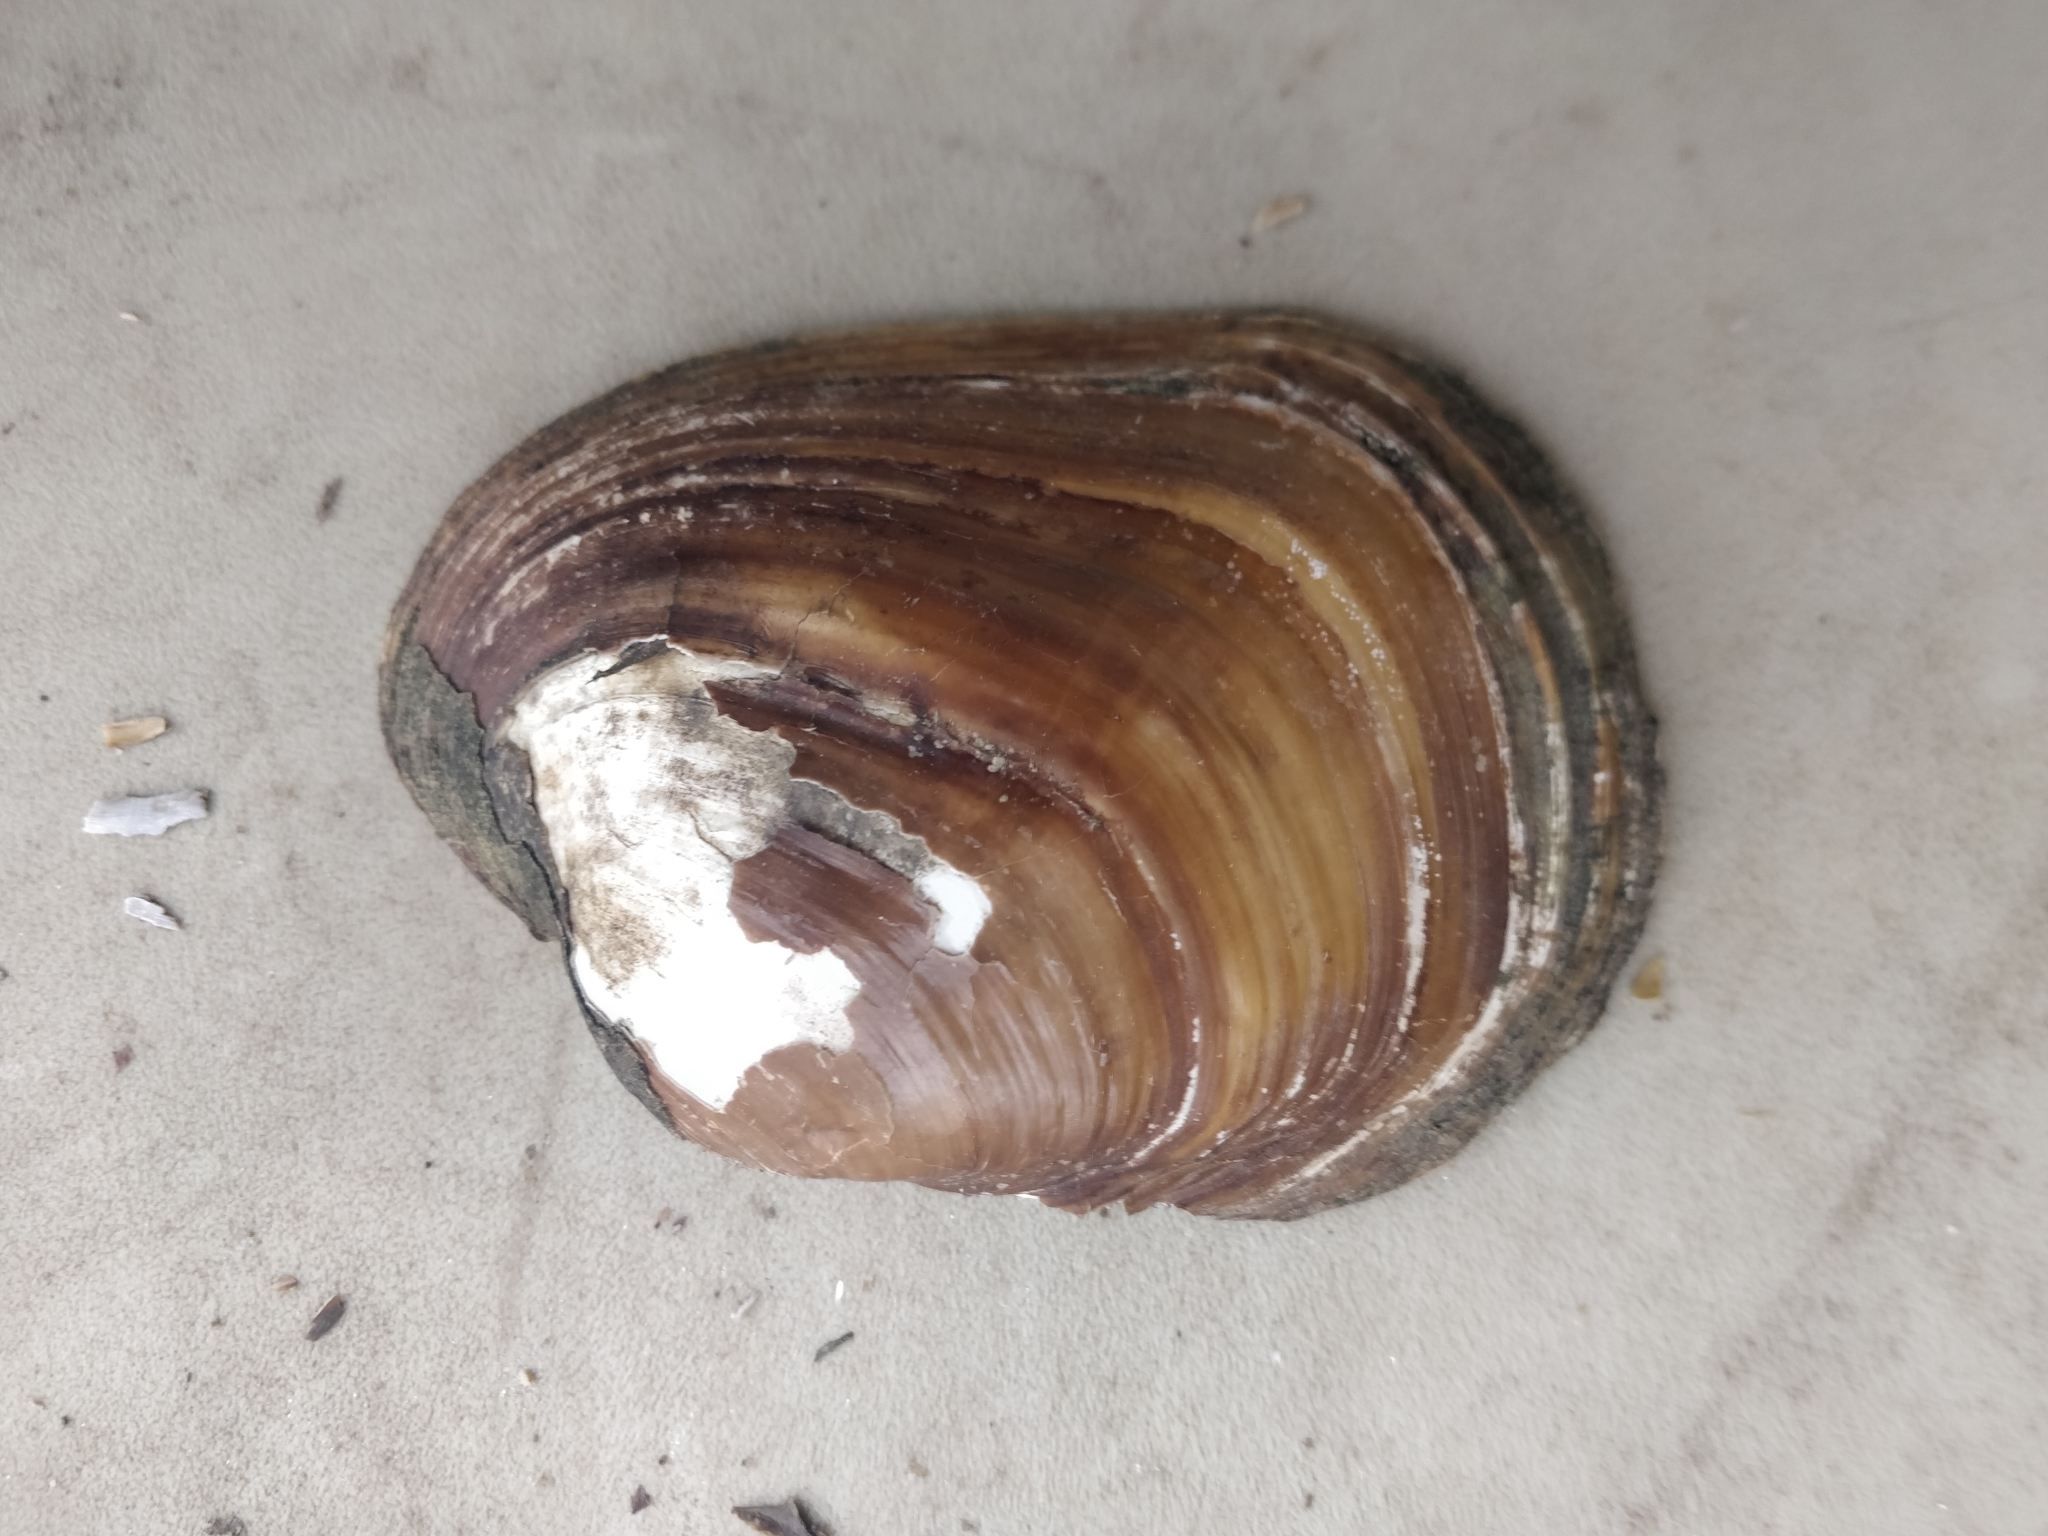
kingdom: Animalia
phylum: Mollusca
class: Bivalvia
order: Unionida
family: Unionidae
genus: Lampsilis
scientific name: Lampsilis cardium
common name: Plain pocketbook
